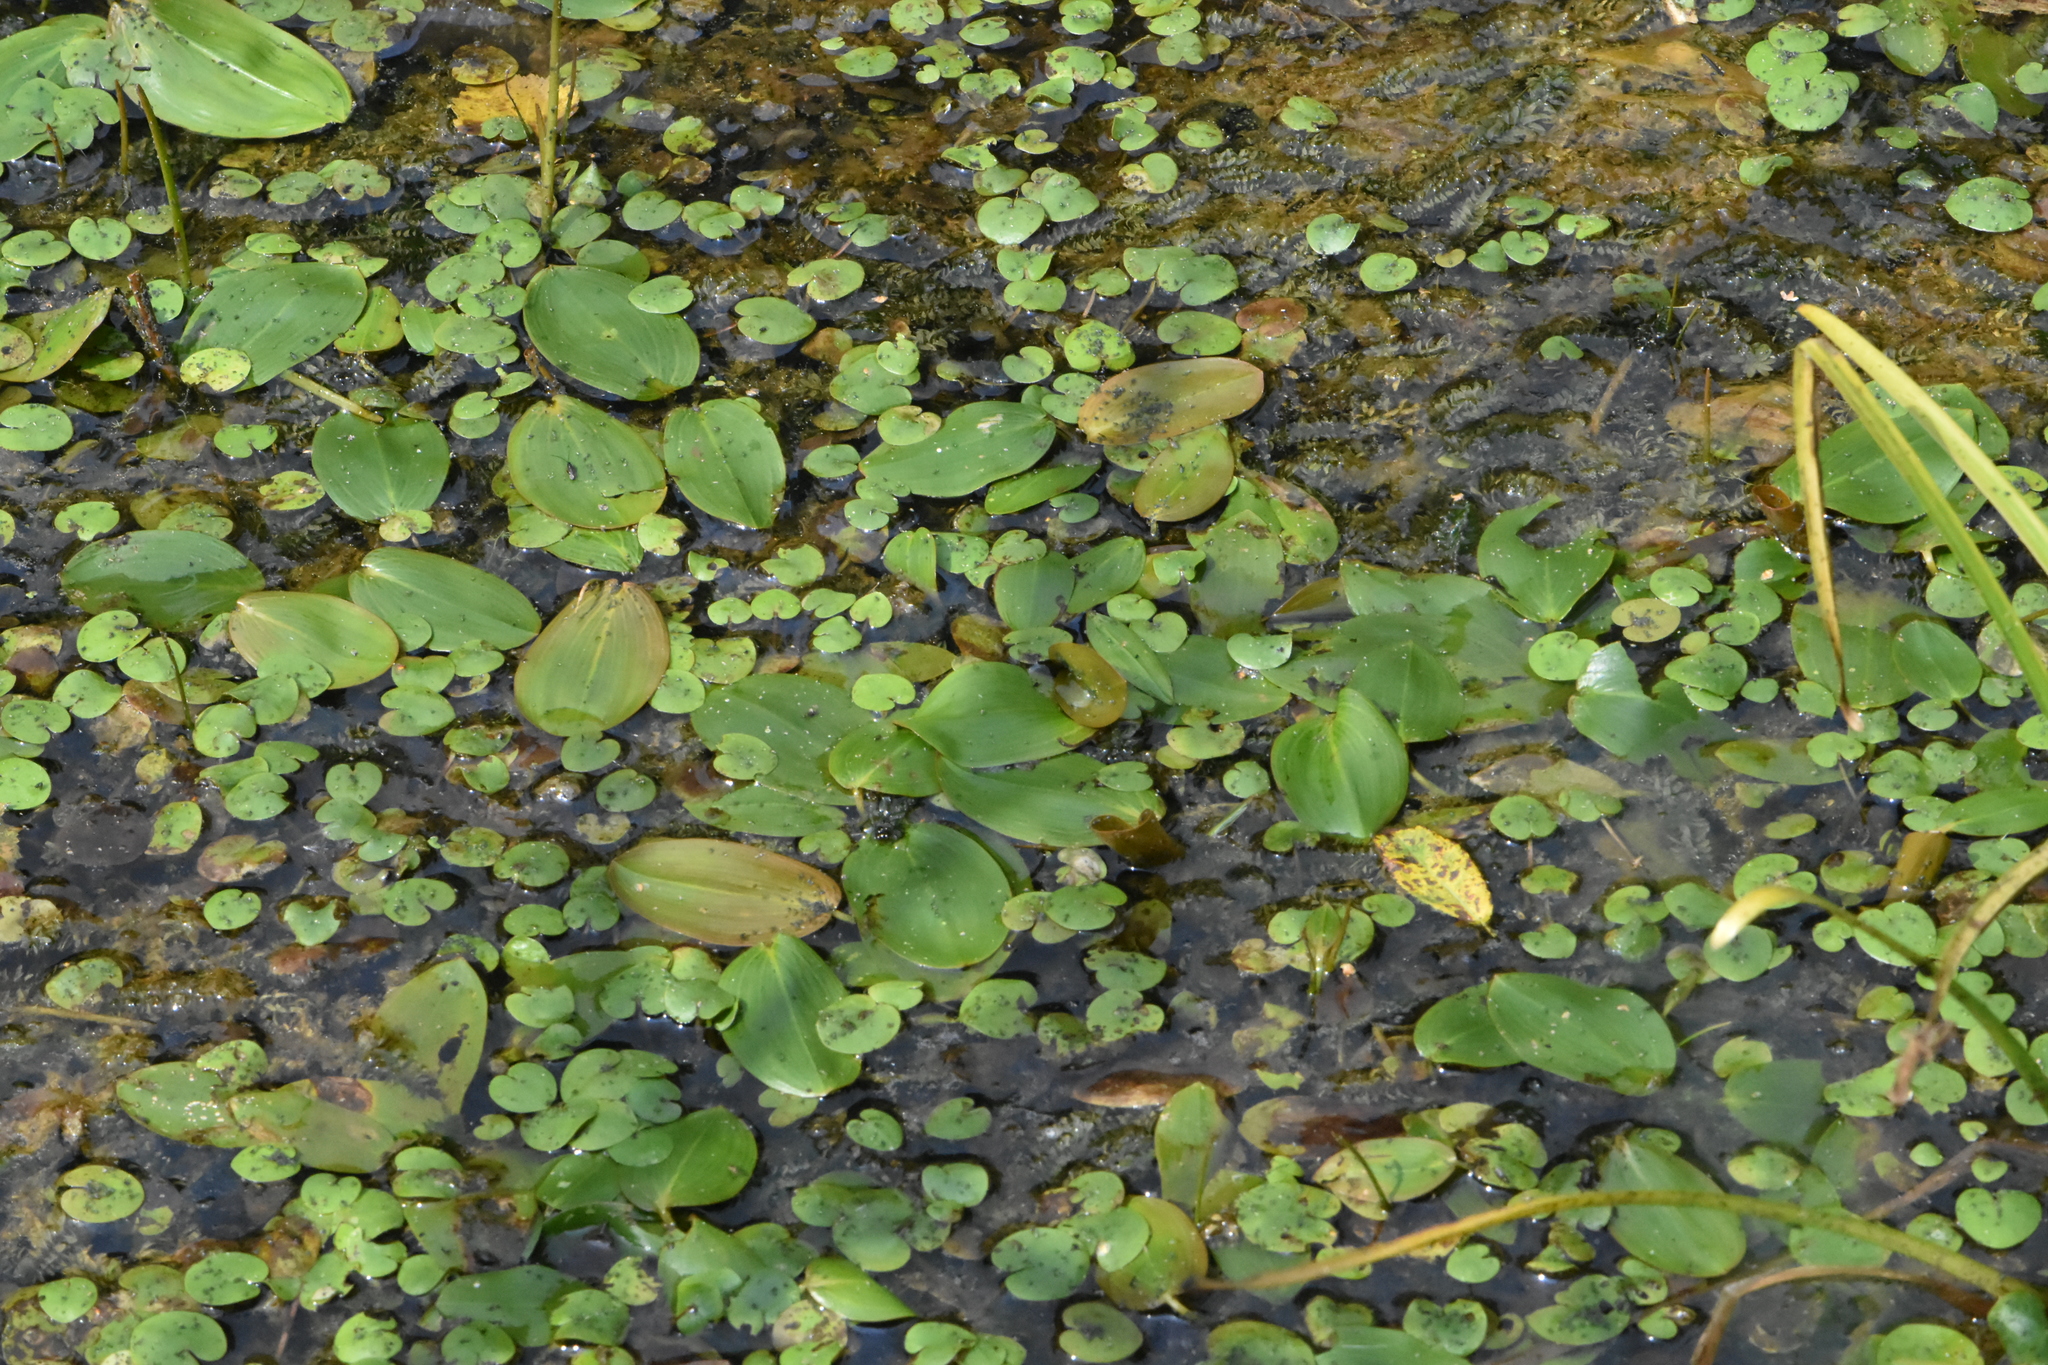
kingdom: Plantae
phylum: Tracheophyta
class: Liliopsida
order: Alismatales
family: Potamogetonaceae
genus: Potamogeton
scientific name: Potamogeton natans
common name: Broad-leaved pondweed
